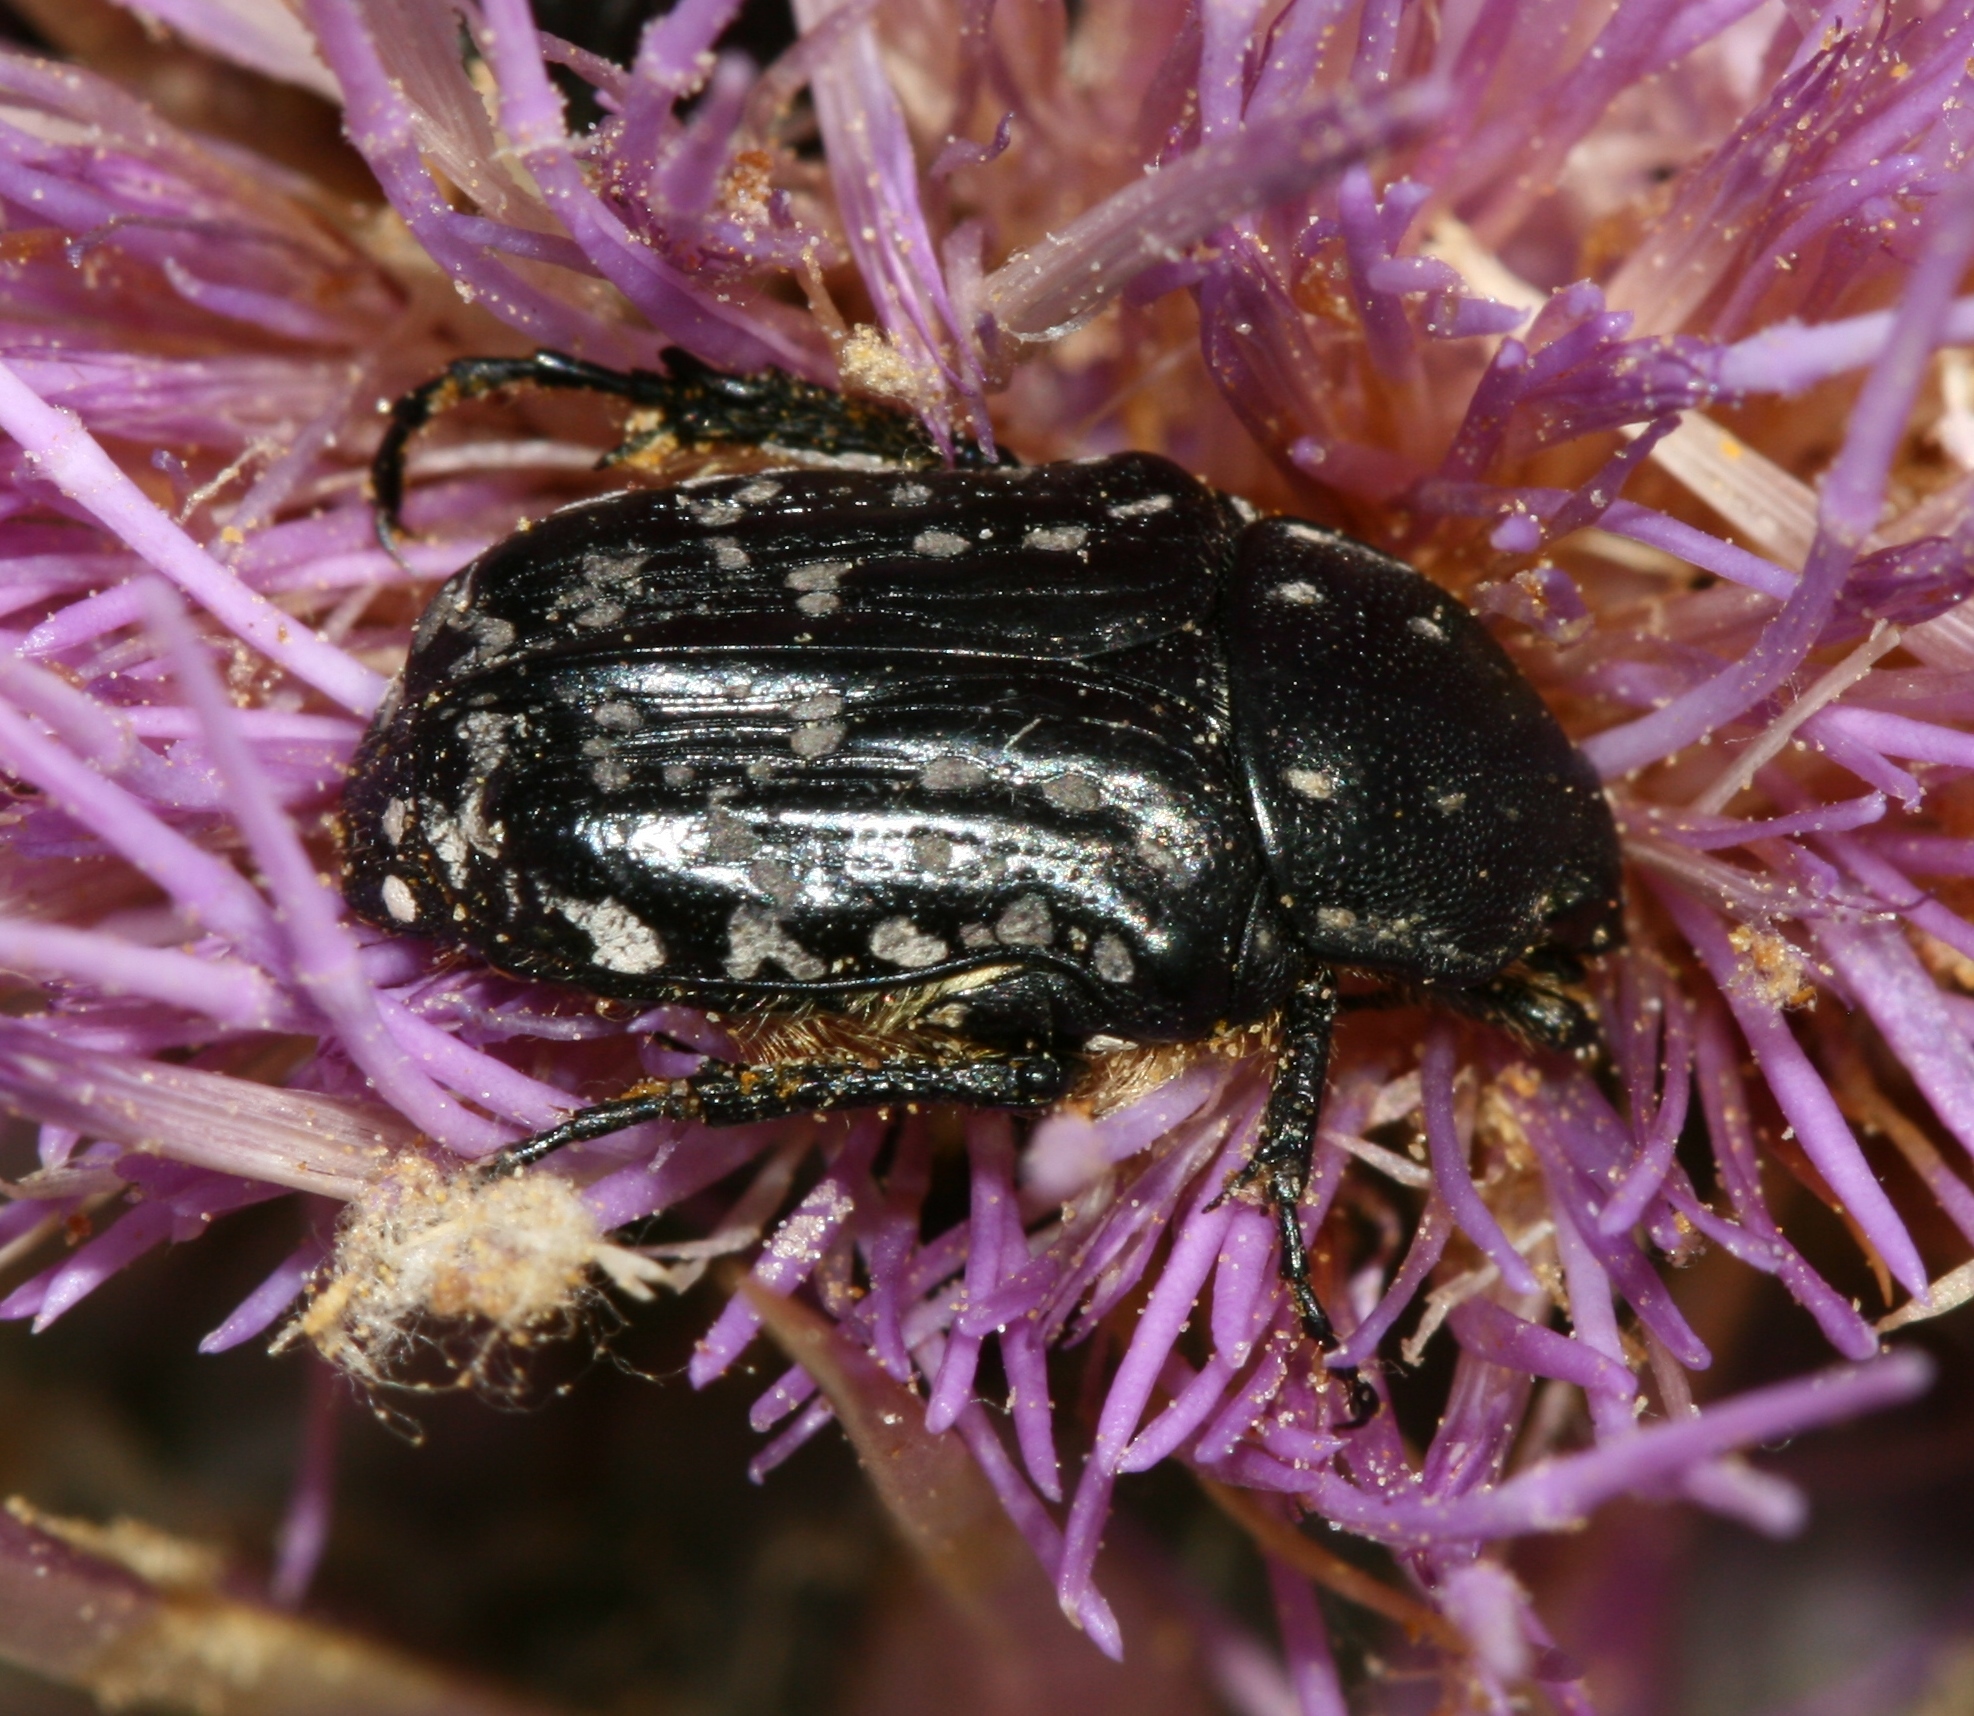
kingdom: Animalia
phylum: Arthropoda
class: Insecta
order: Coleoptera
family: Scarabaeidae
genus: Oxythyrea
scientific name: Oxythyrea cinctella
